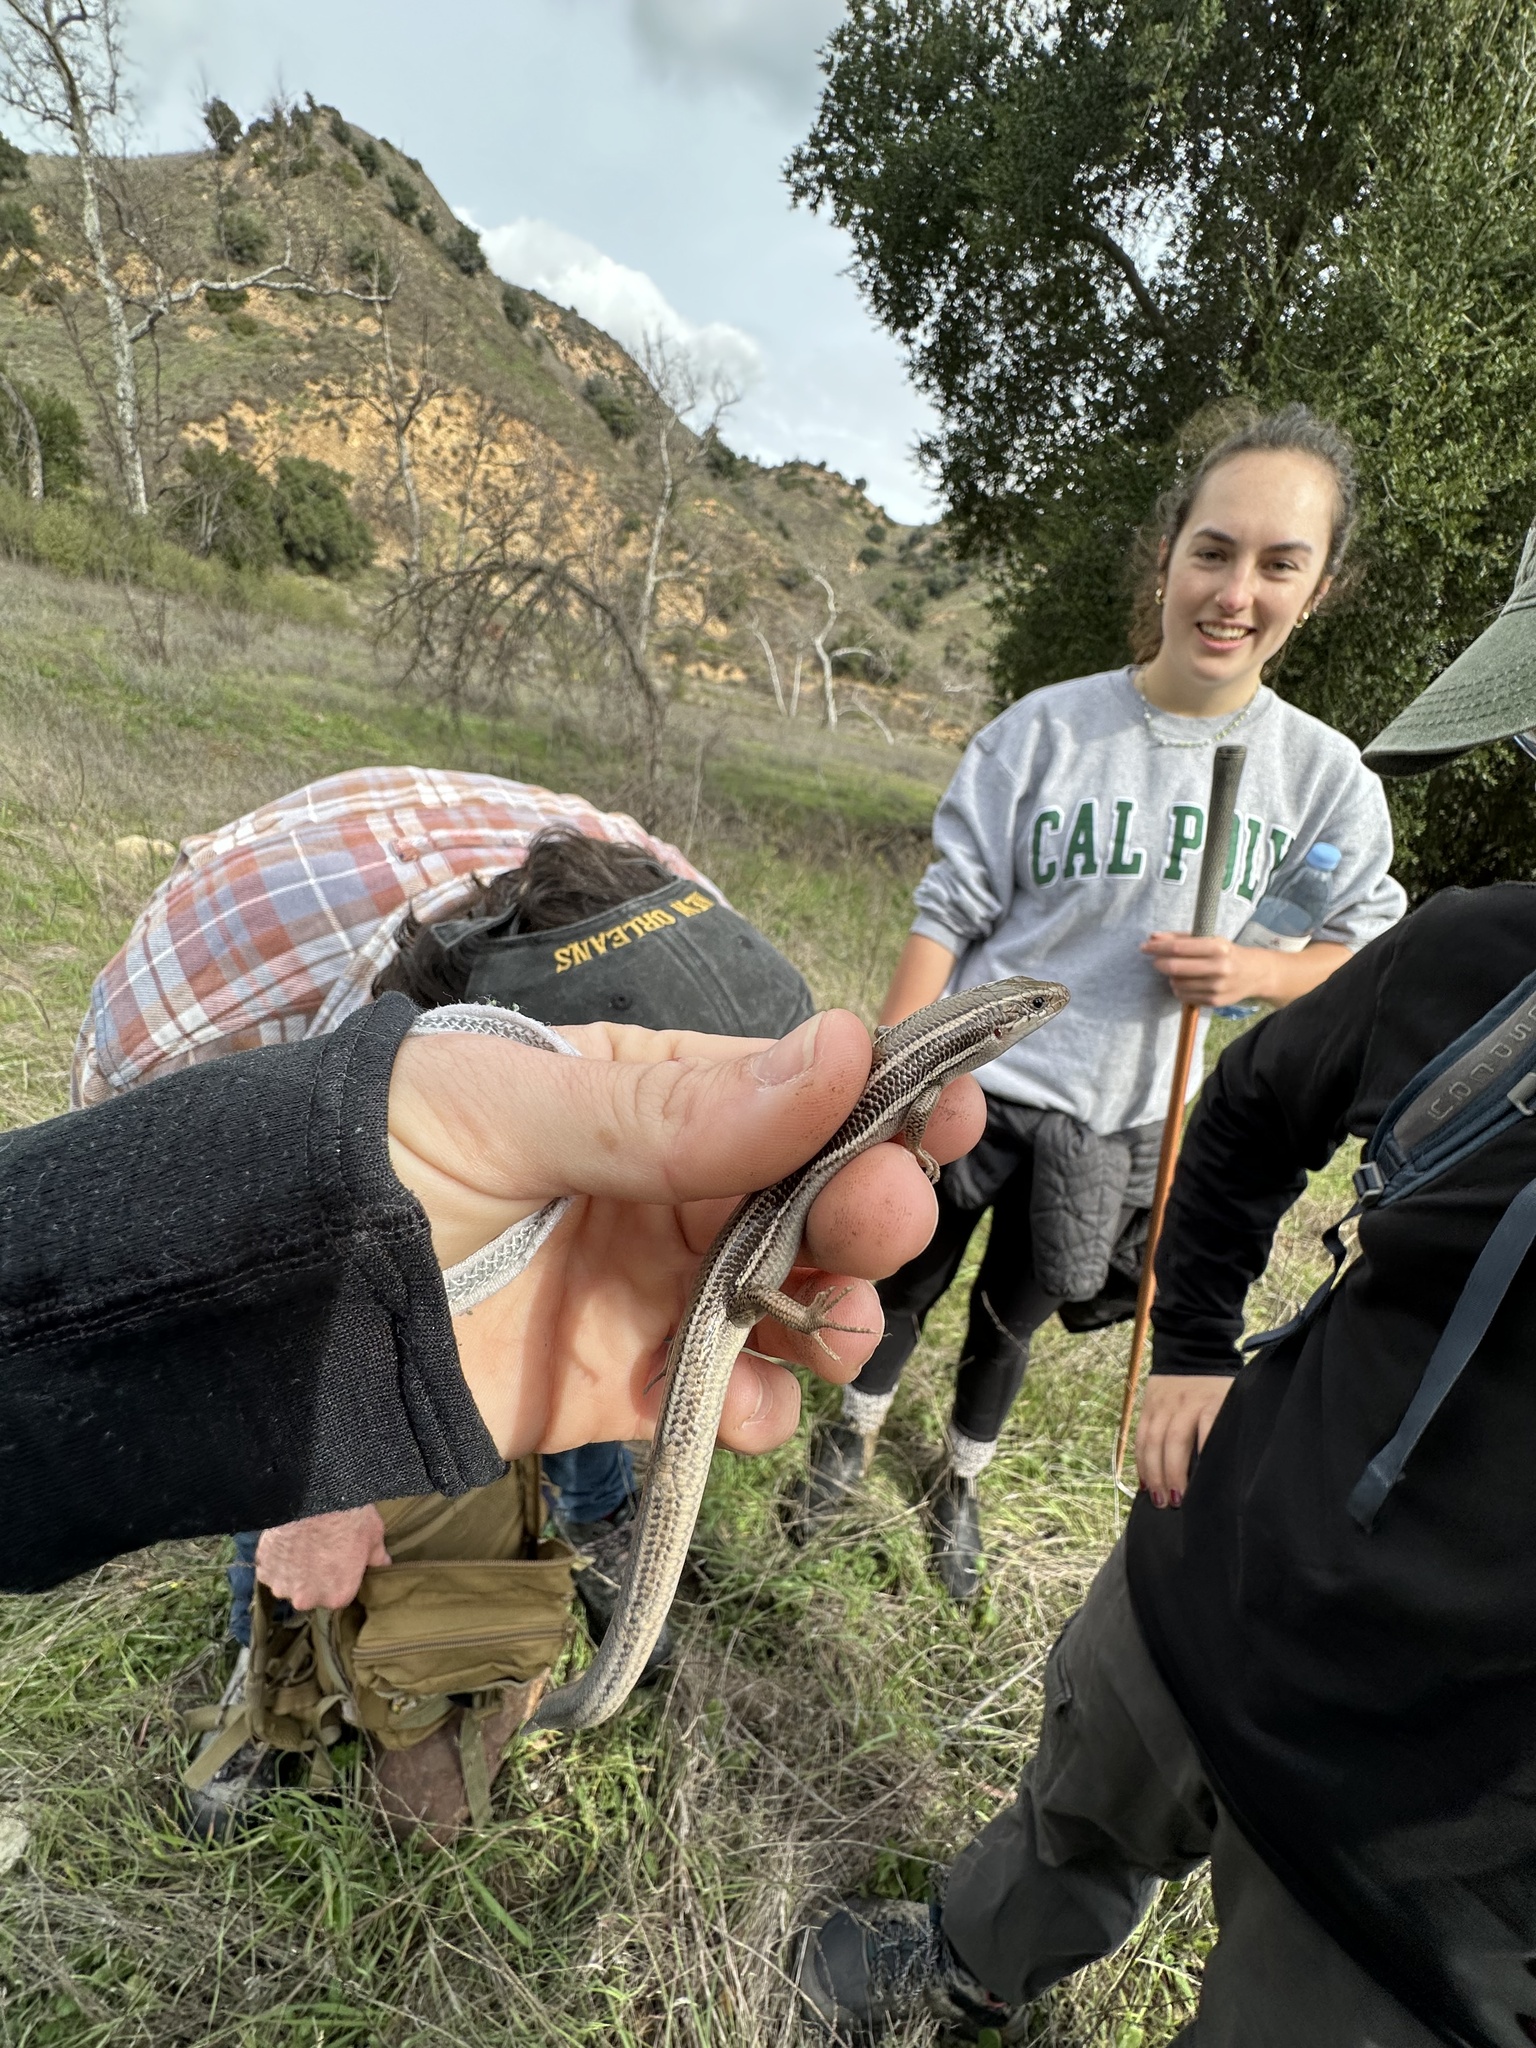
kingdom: Animalia
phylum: Chordata
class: Squamata
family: Scincidae
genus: Plestiodon
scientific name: Plestiodon skiltonianus
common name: Coronado island skink [interparietalis]
